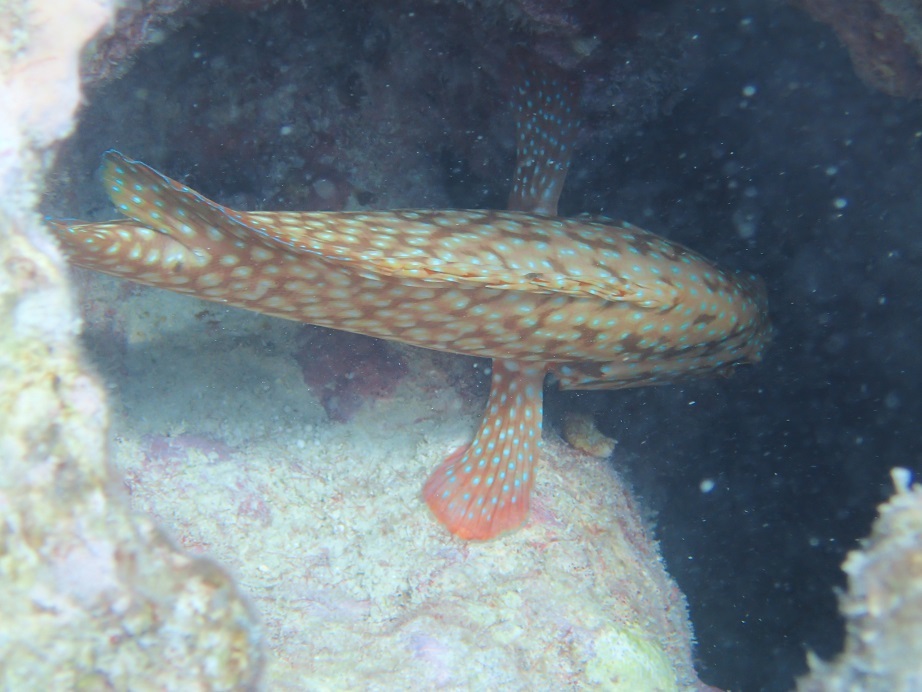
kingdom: Animalia
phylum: Chordata
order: Perciformes
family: Serranidae
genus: Cephalopholis
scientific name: Cephalopholis cyanostigma
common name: Bluespotted hind
